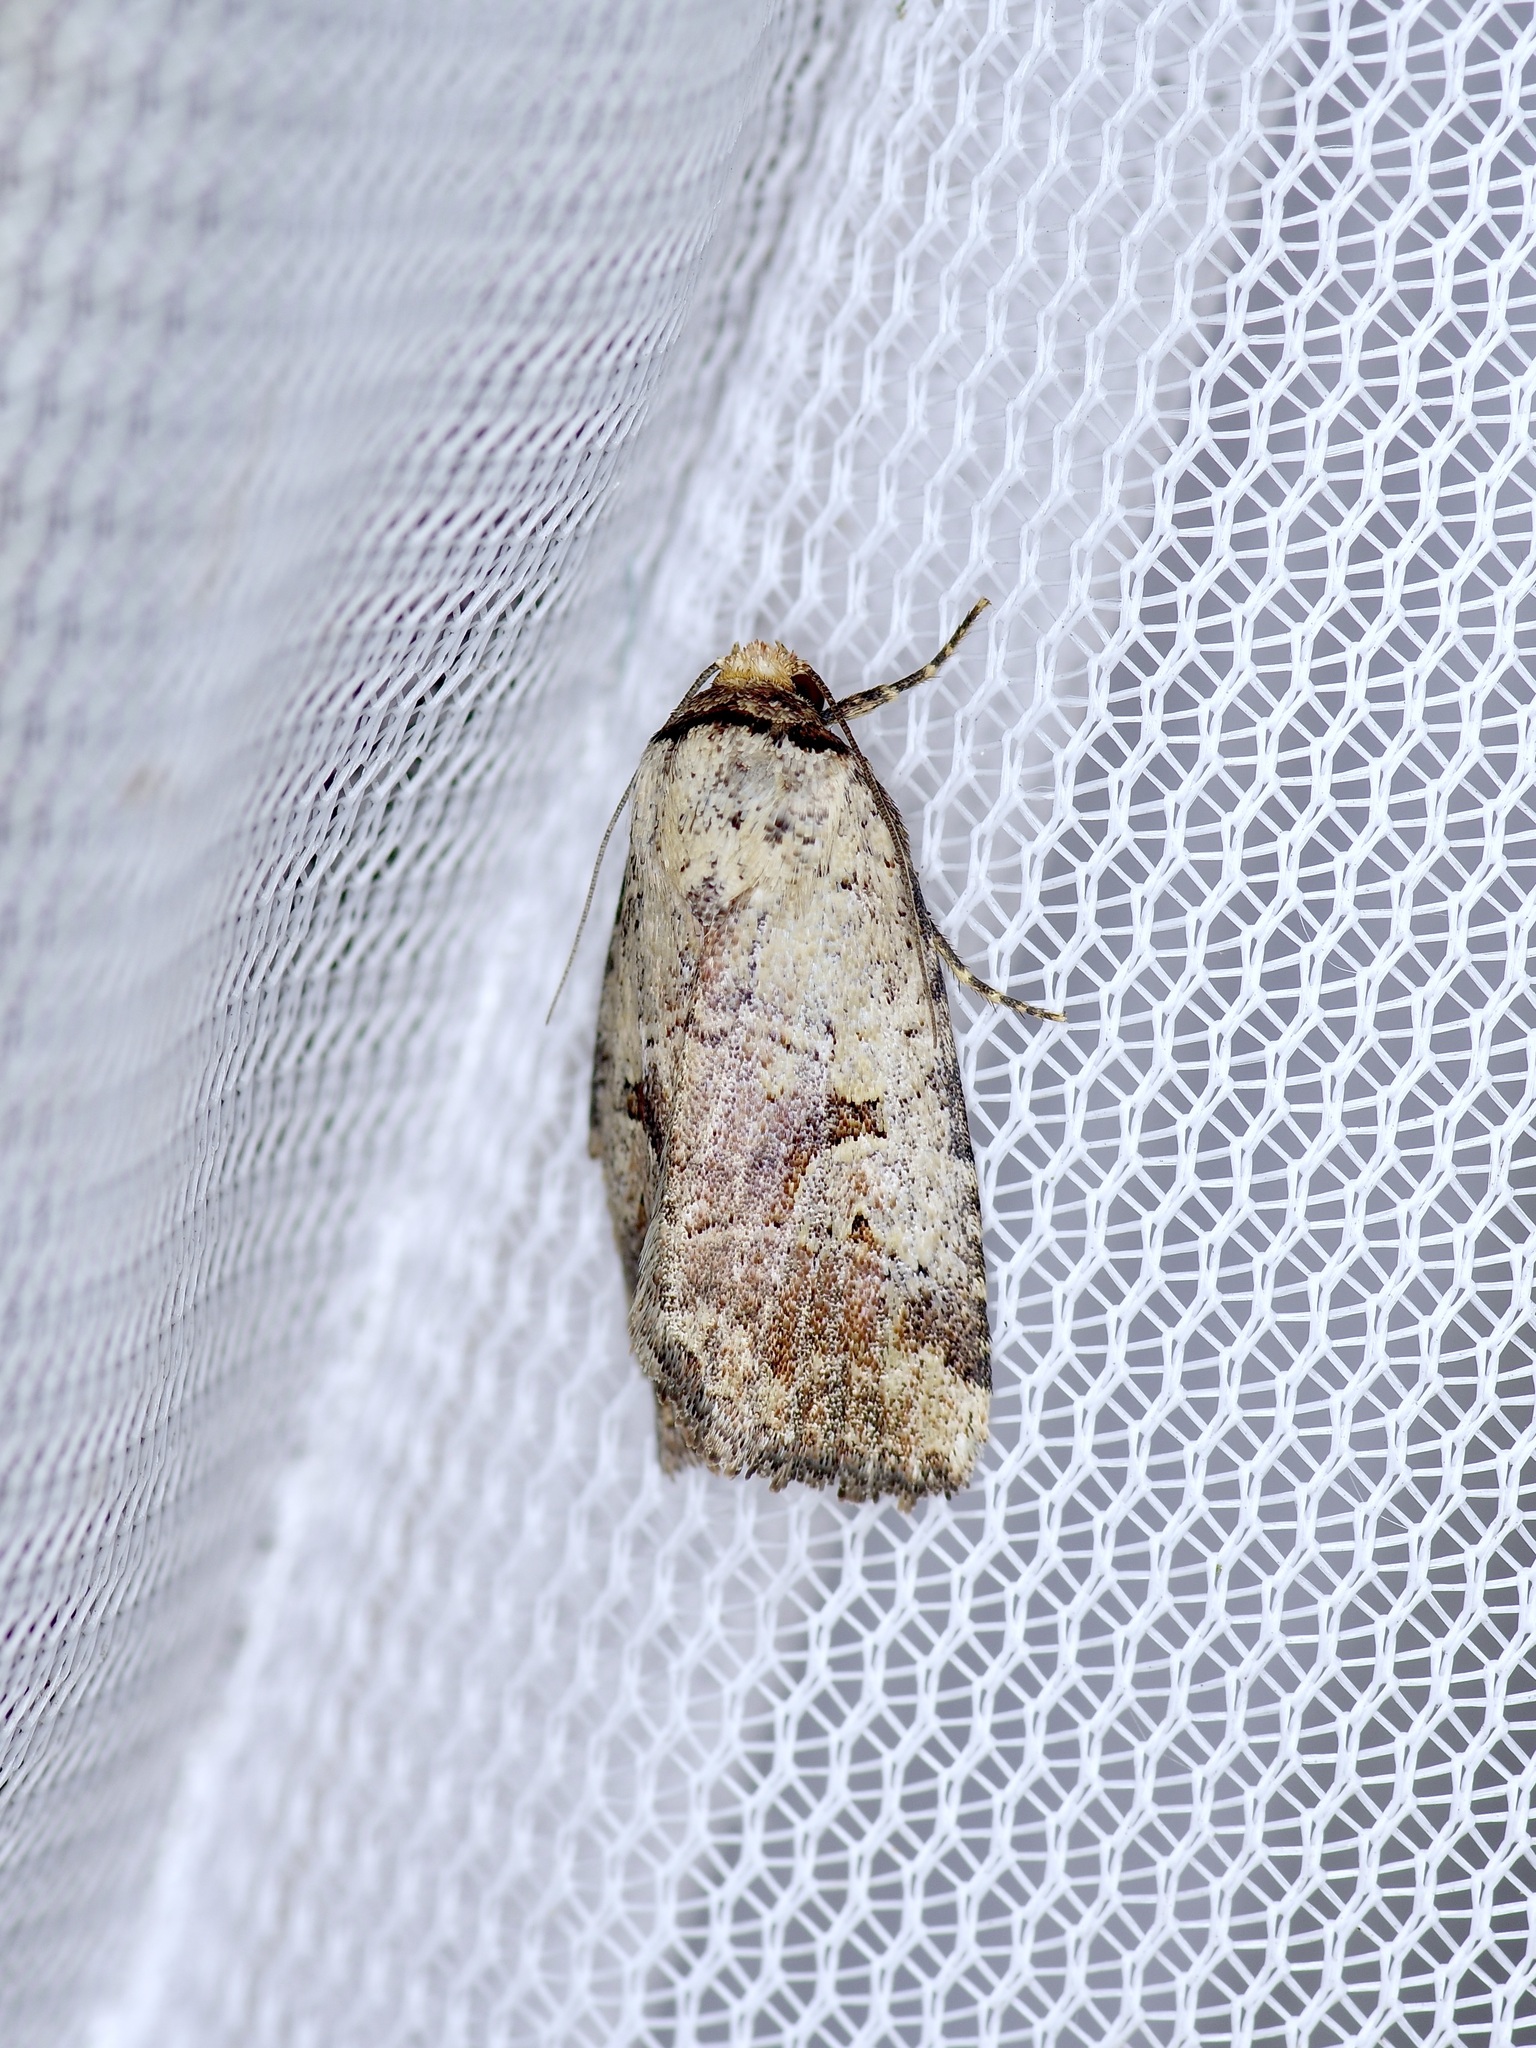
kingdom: Animalia
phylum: Arthropoda
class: Insecta
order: Lepidoptera
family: Noctuidae
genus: Elaphria
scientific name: Elaphria festivoides
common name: Festive midget
